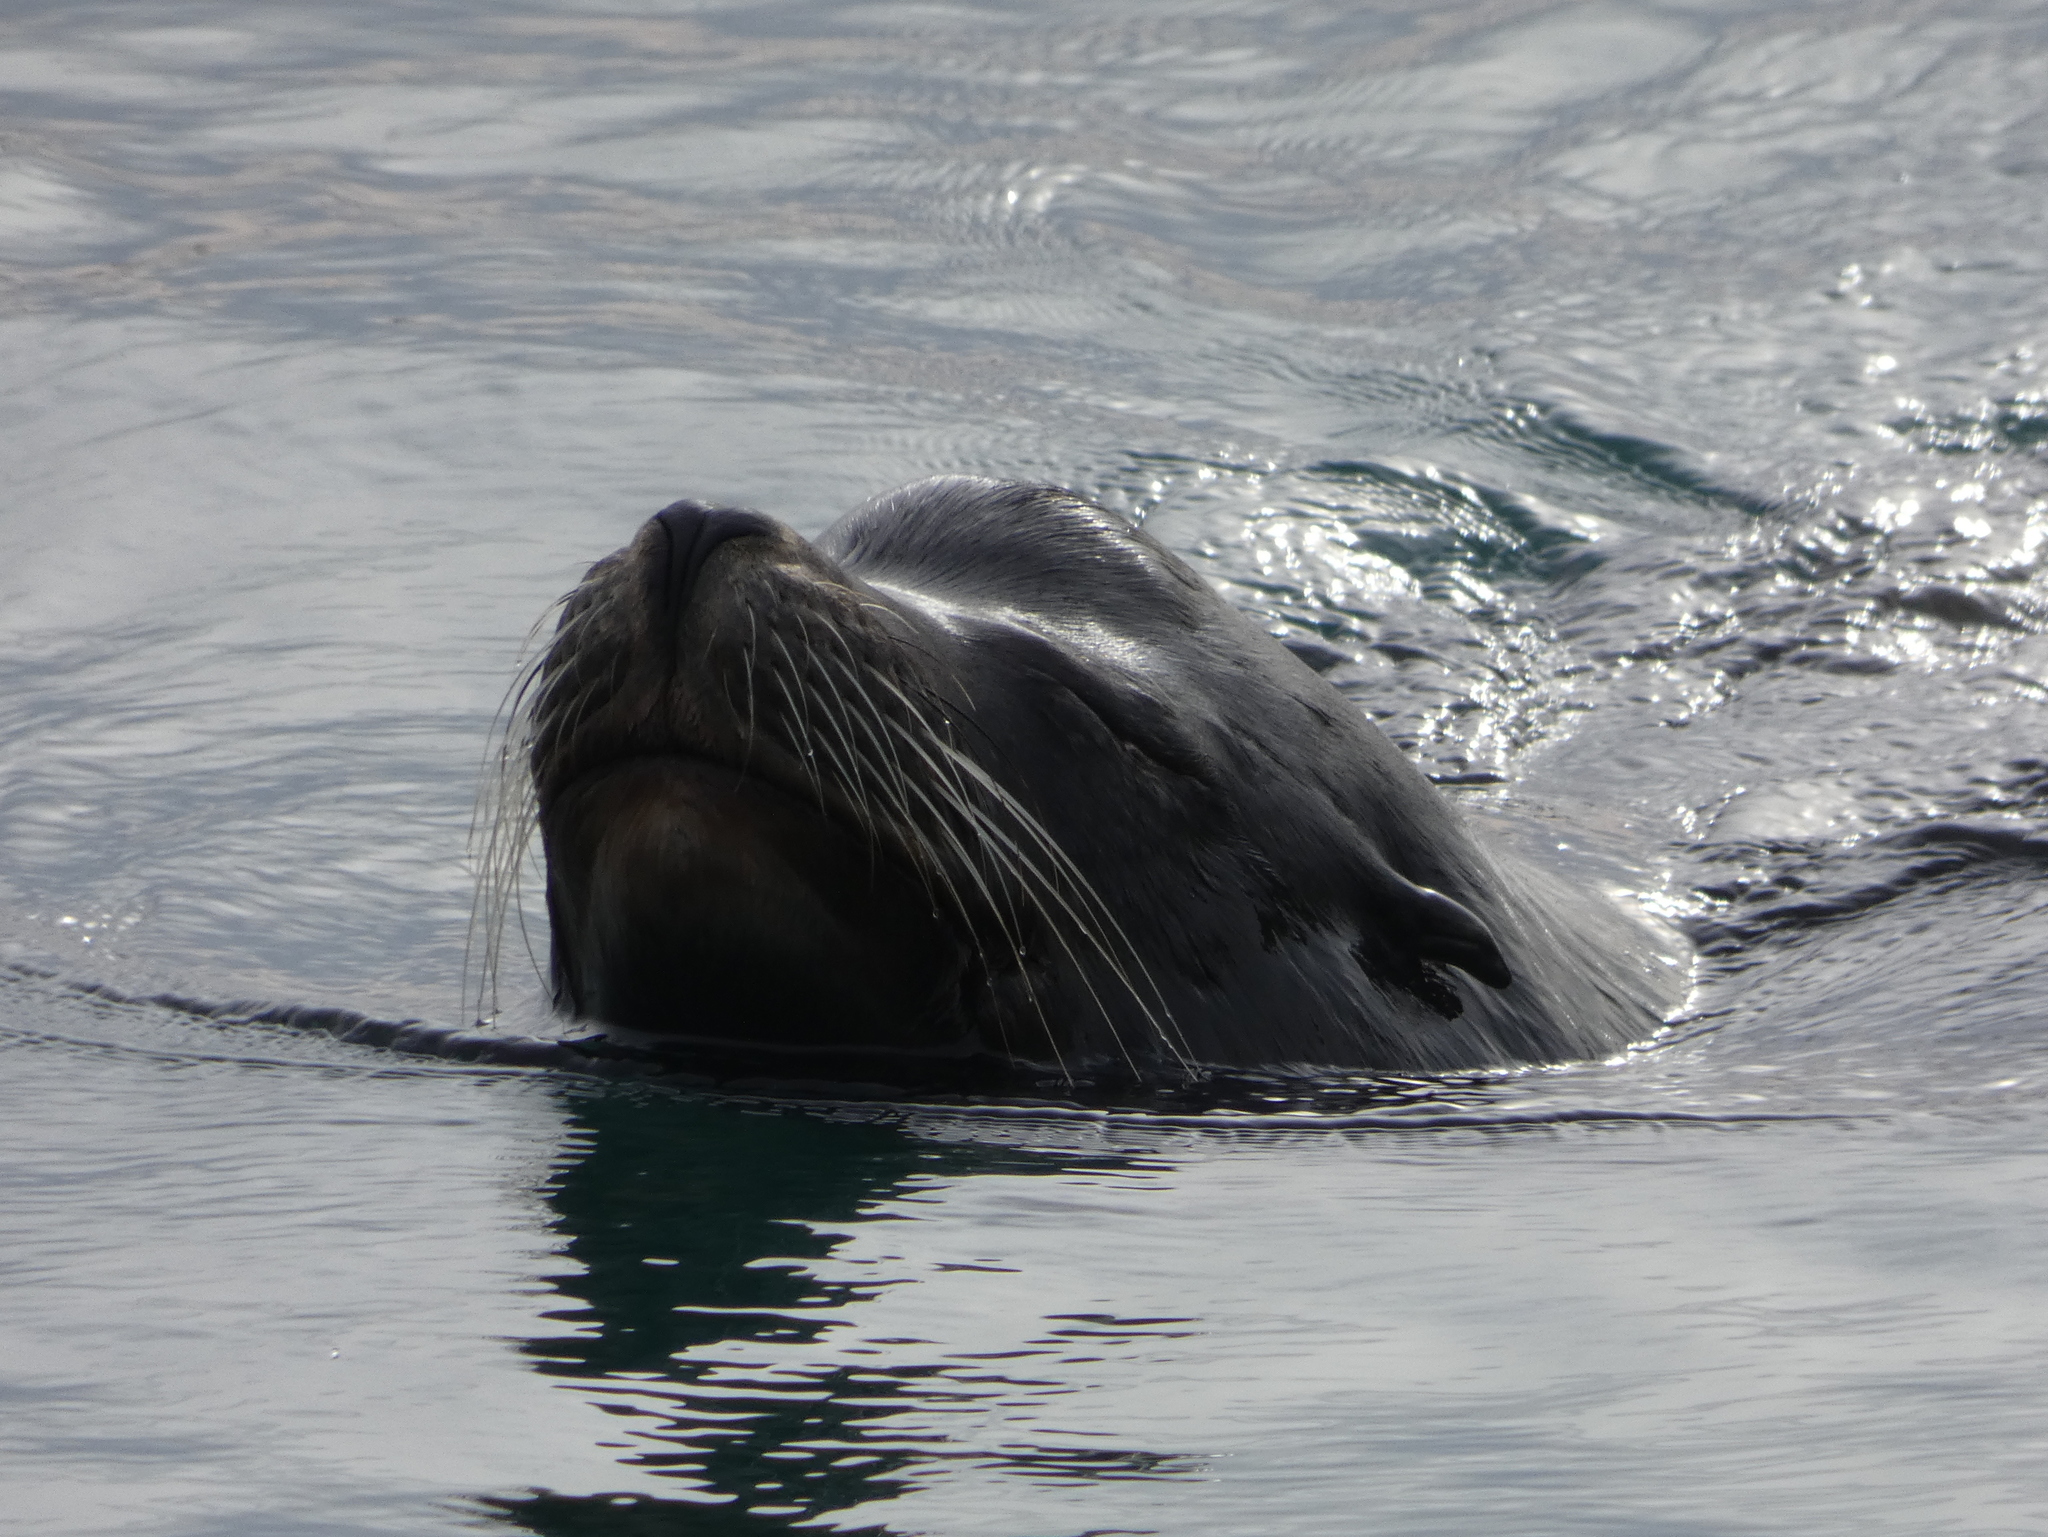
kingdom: Animalia
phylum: Chordata
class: Mammalia
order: Carnivora
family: Otariidae
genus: Zalophus
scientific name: Zalophus californianus
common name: California sea lion
